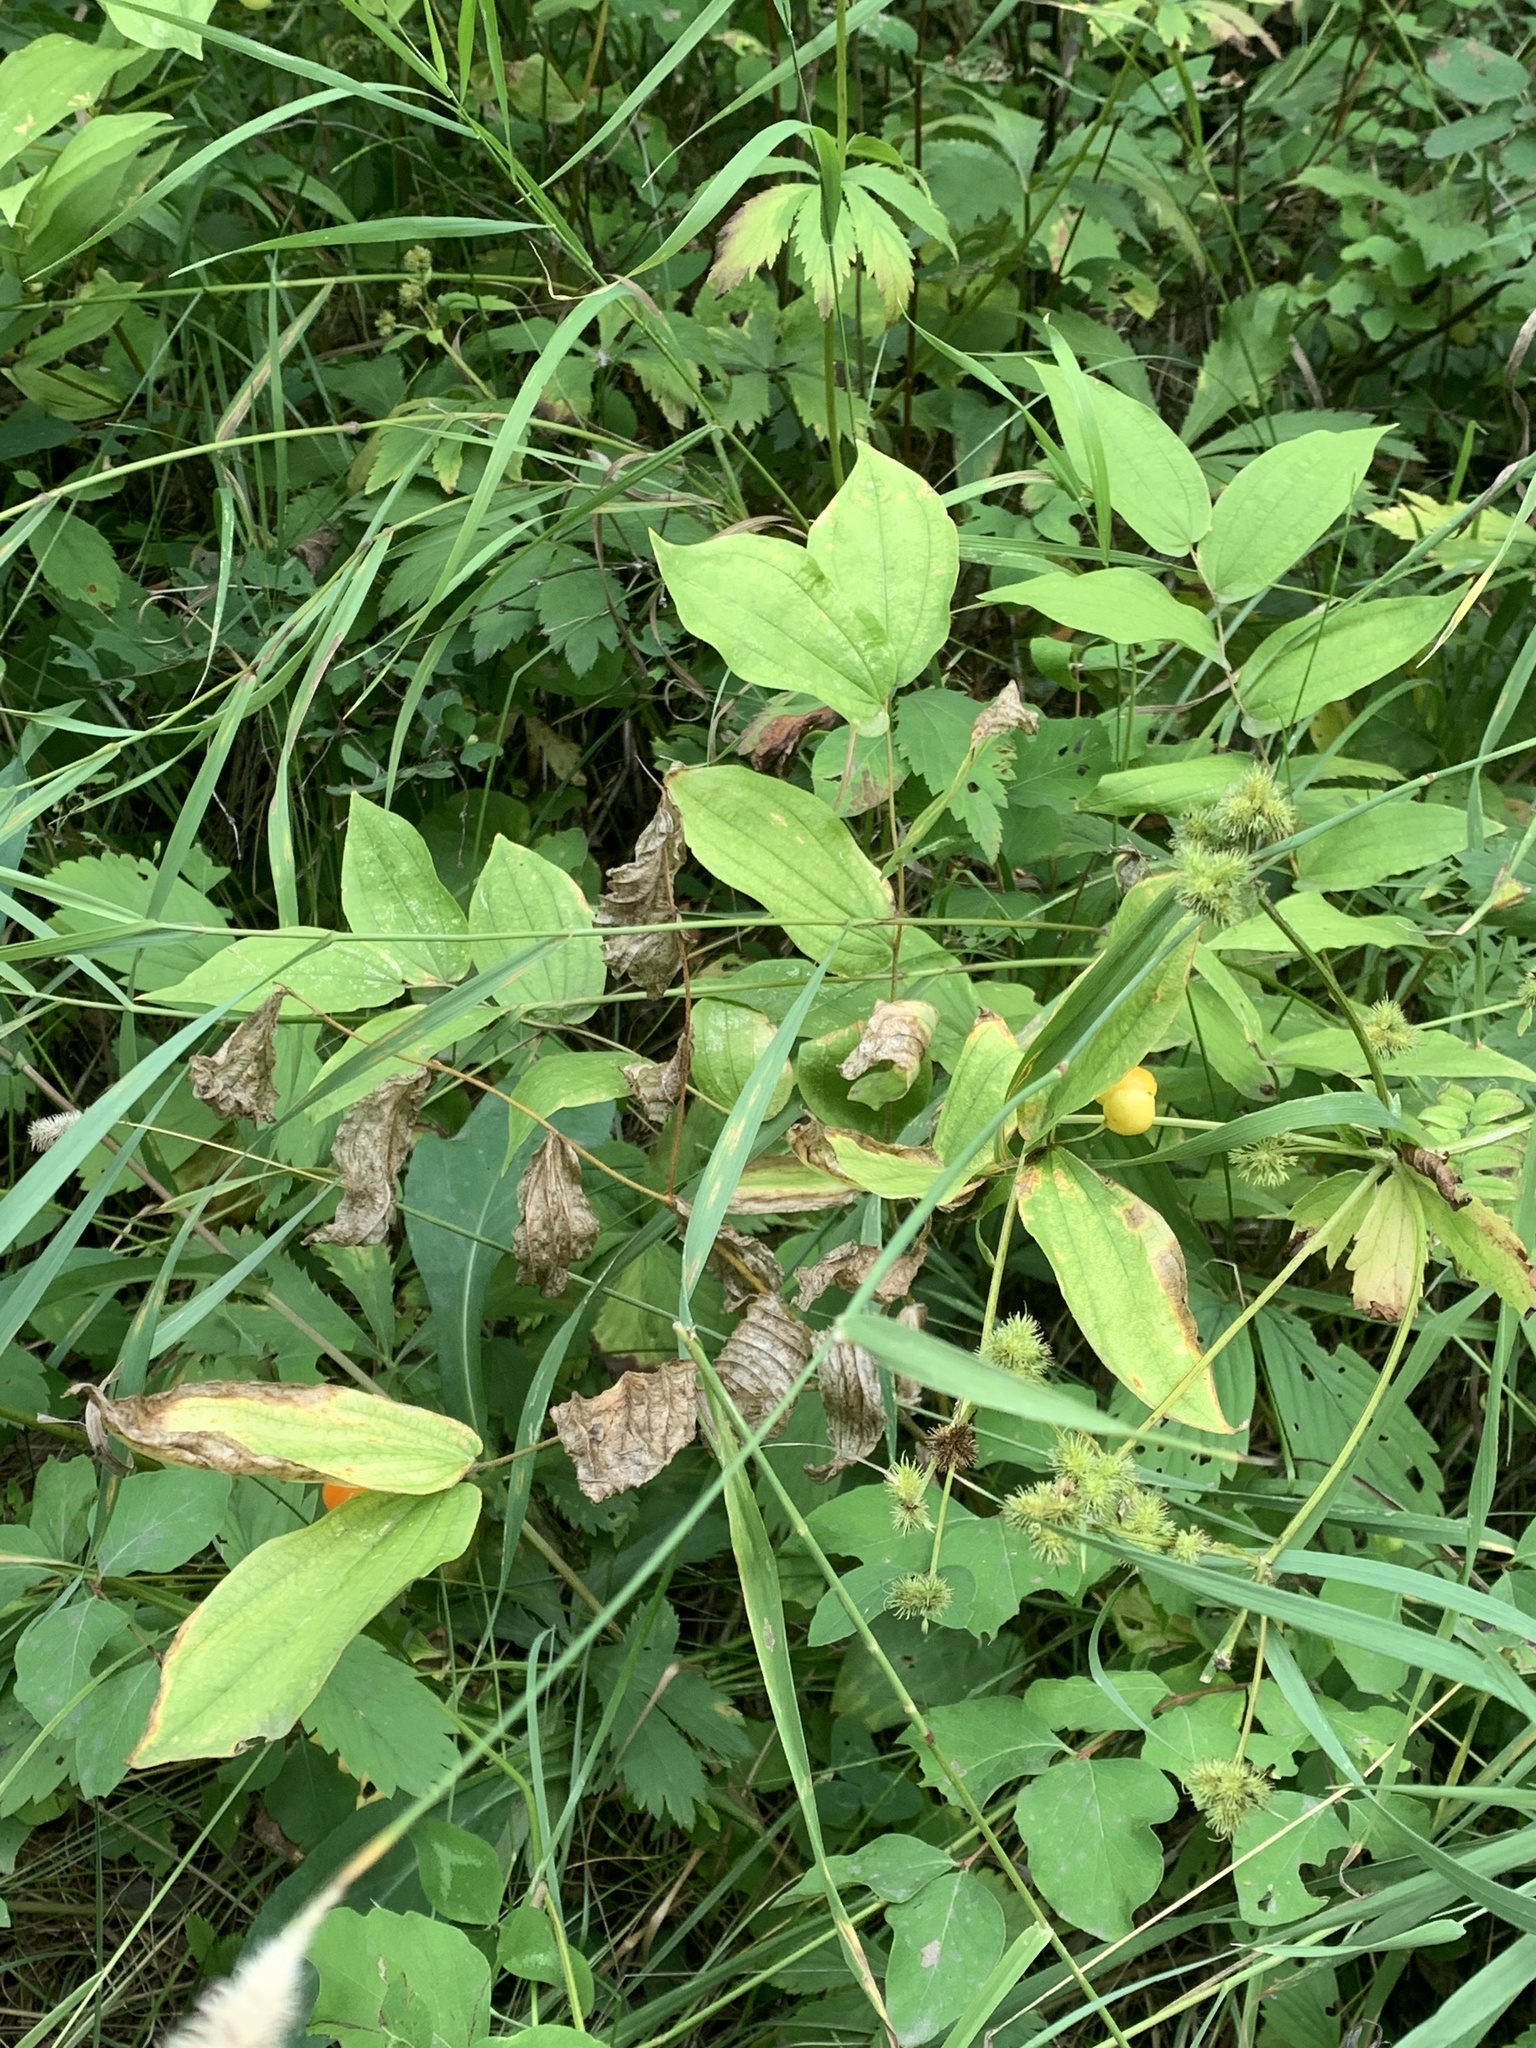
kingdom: Plantae
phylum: Tracheophyta
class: Liliopsida
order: Liliales
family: Liliaceae
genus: Prosartes
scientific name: Prosartes hookeri
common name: Fairy-bells
